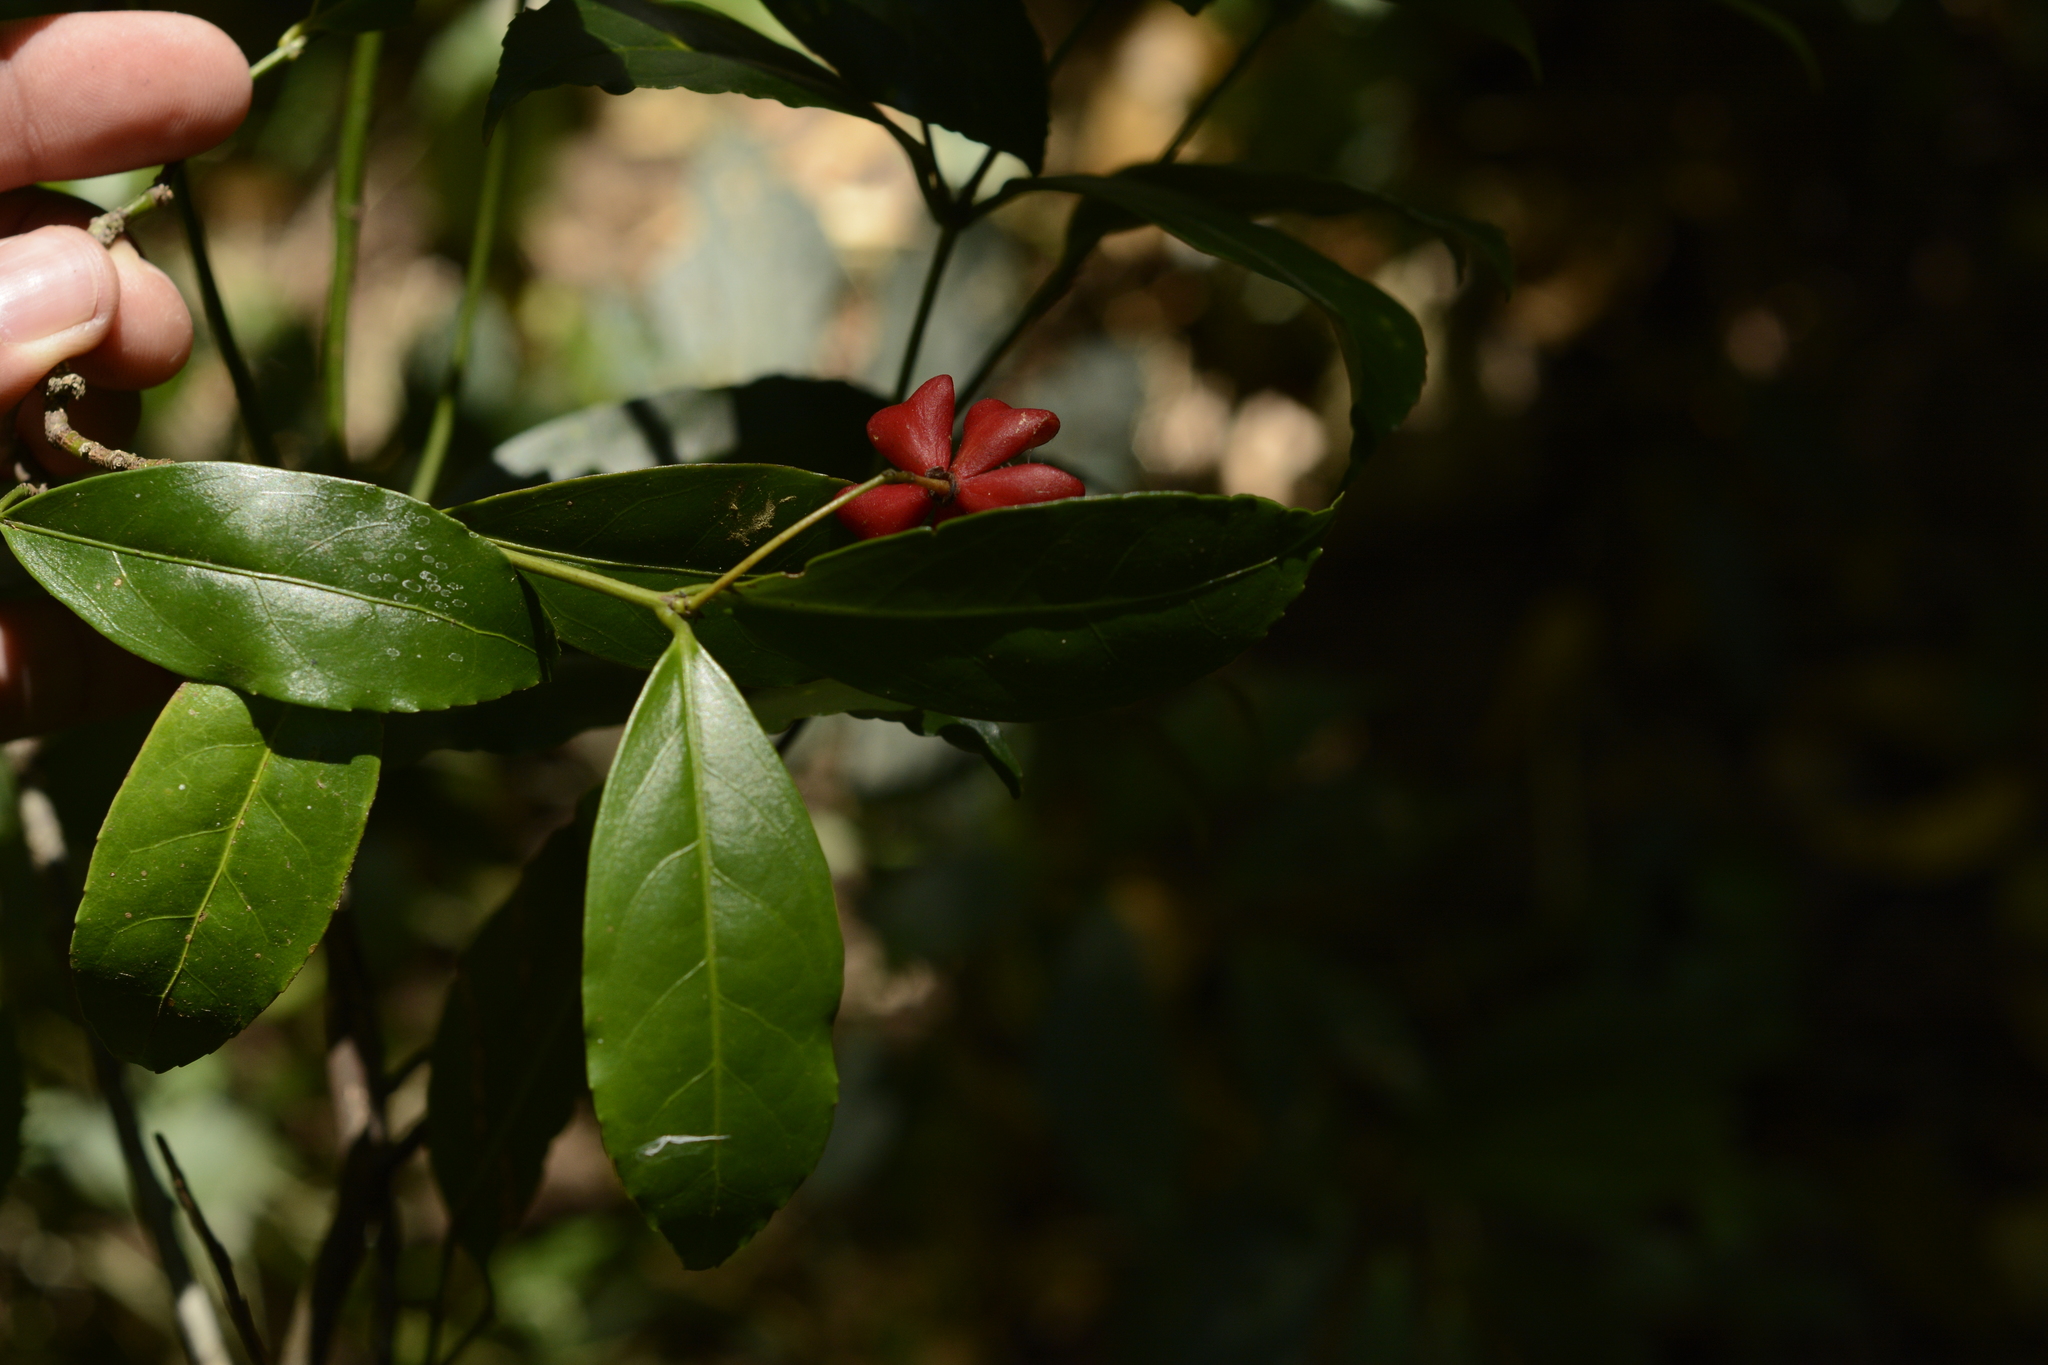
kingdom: Plantae
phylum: Tracheophyta
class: Magnoliopsida
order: Celastrales
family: Celastraceae
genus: Euonymus
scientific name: Euonymus crenulatus
